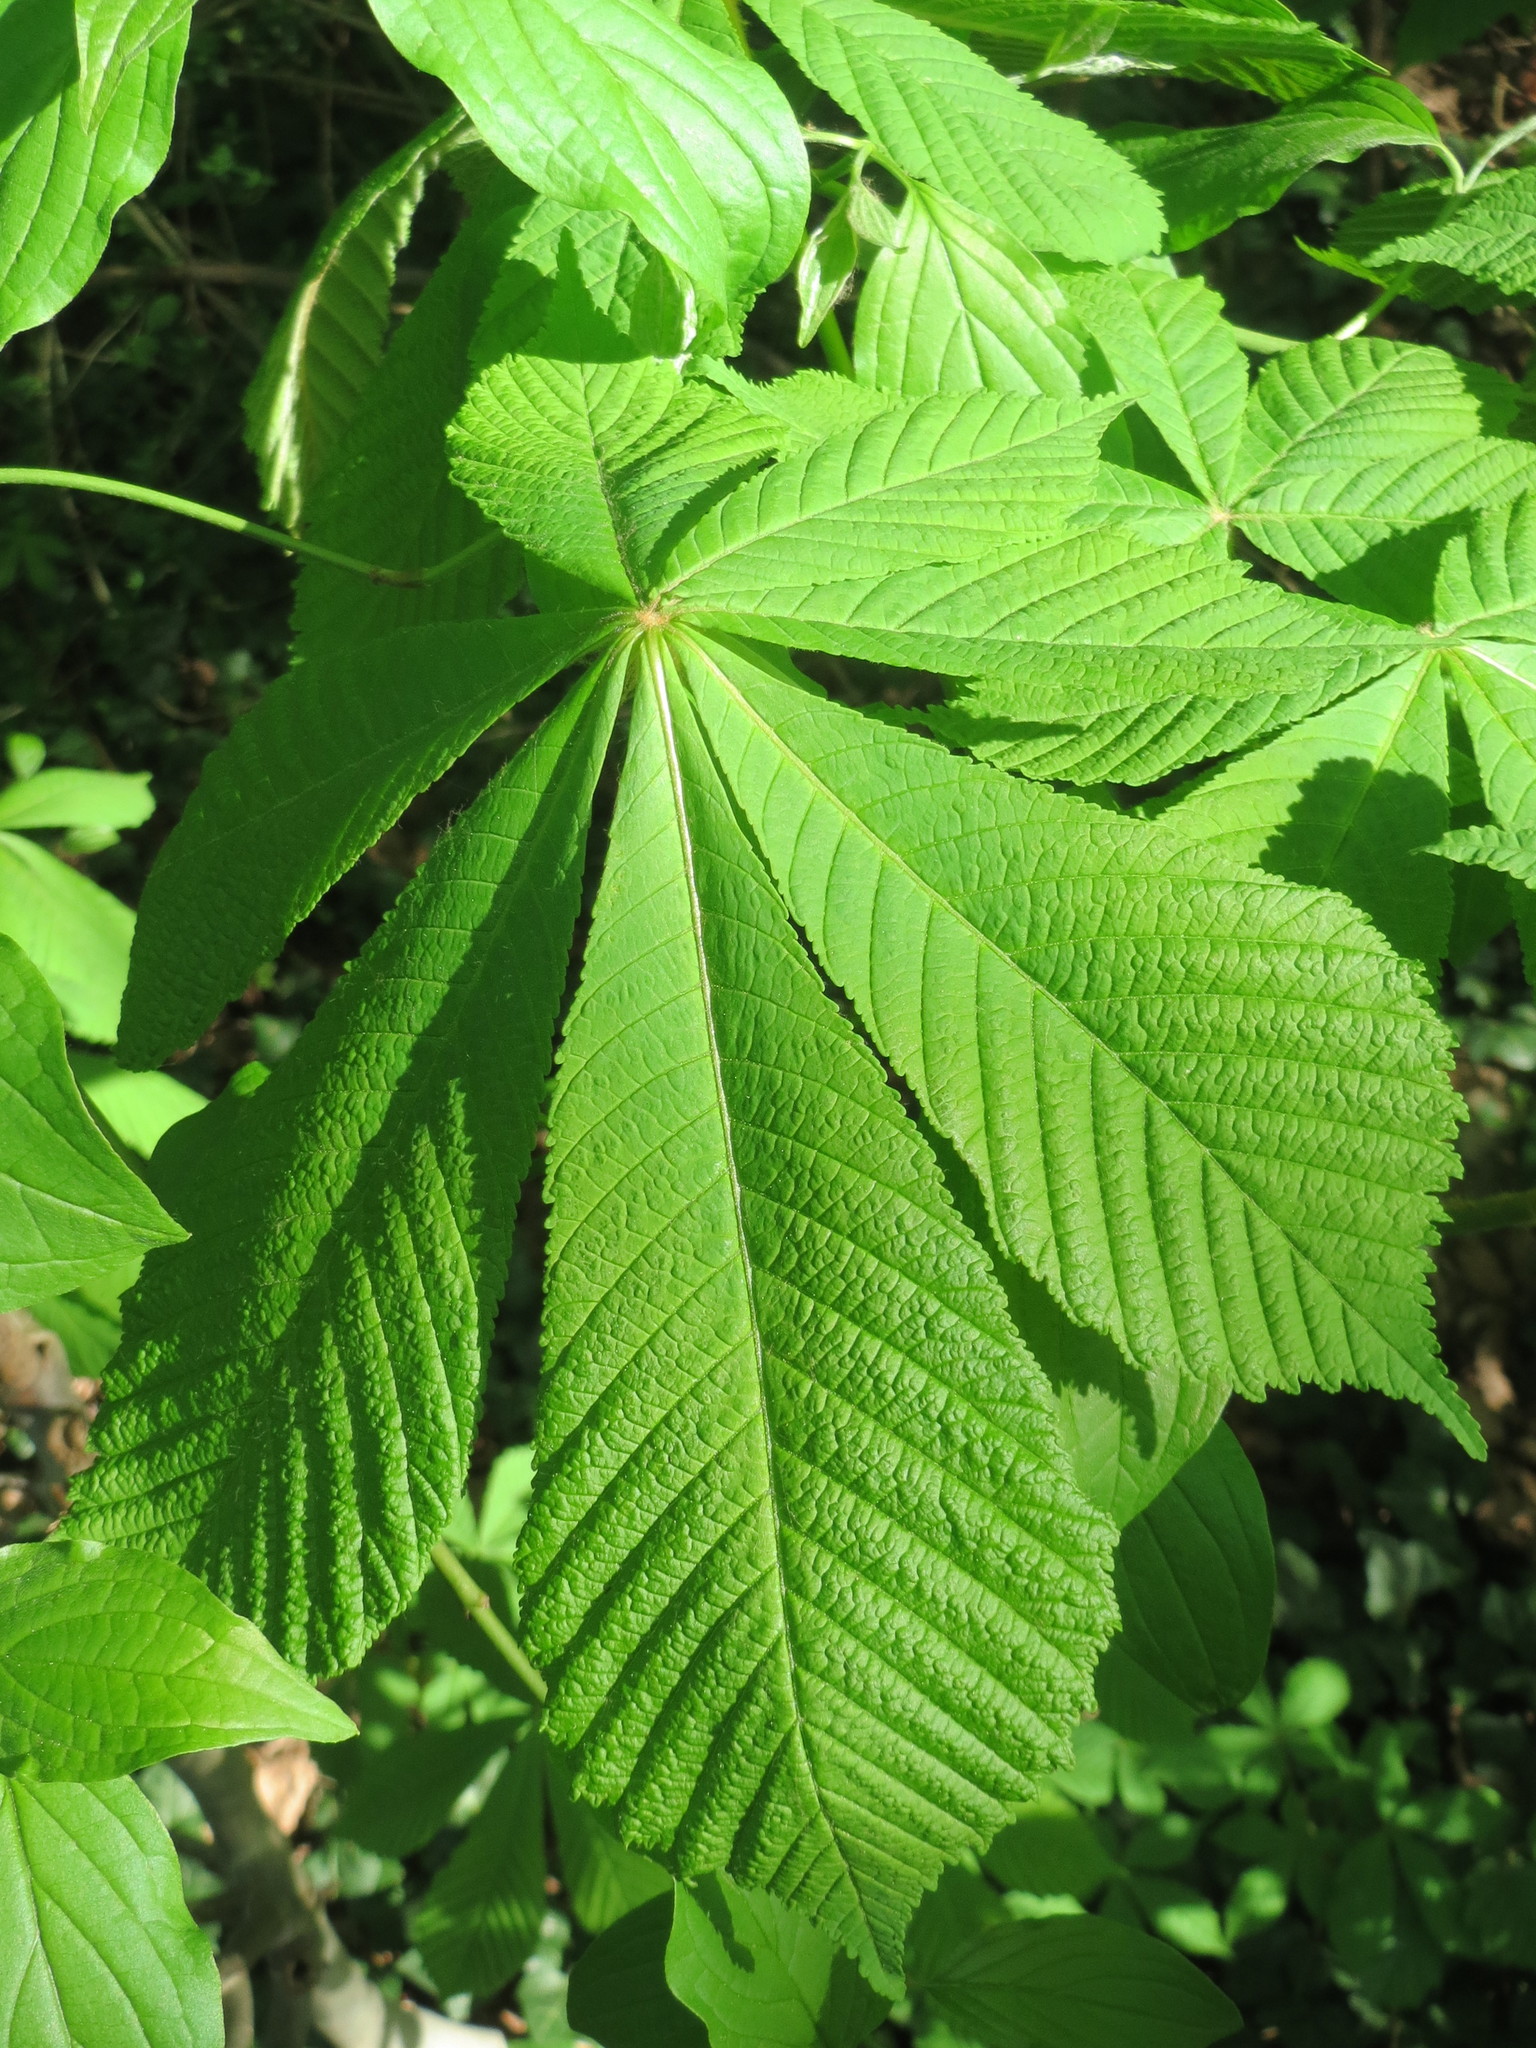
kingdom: Plantae
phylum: Tracheophyta
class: Magnoliopsida
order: Sapindales
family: Sapindaceae
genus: Aesculus
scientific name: Aesculus hippocastanum
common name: Horse-chestnut
